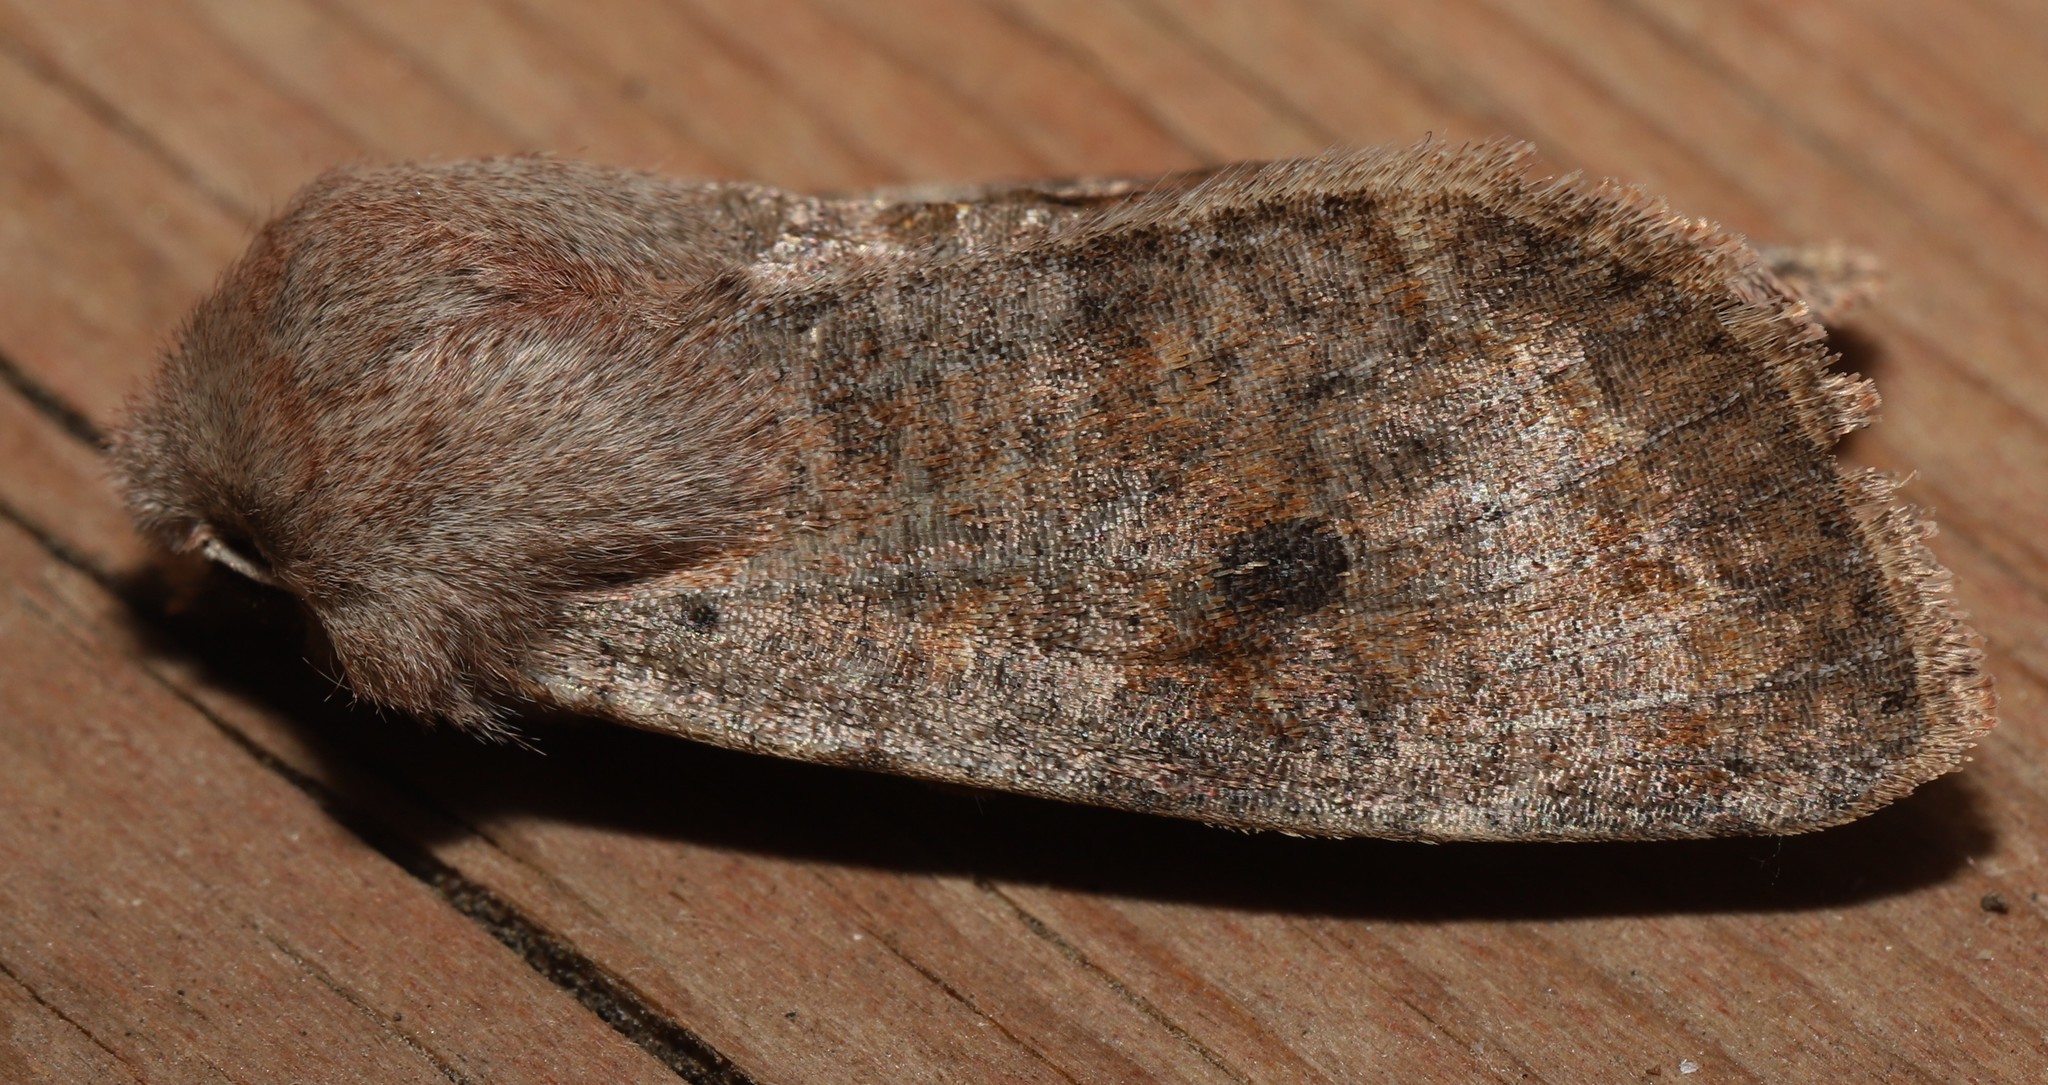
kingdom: Animalia
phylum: Arthropoda
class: Insecta
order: Lepidoptera
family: Noctuidae
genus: Orthosia
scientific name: Orthosia hibisci
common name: Green fruitworm
